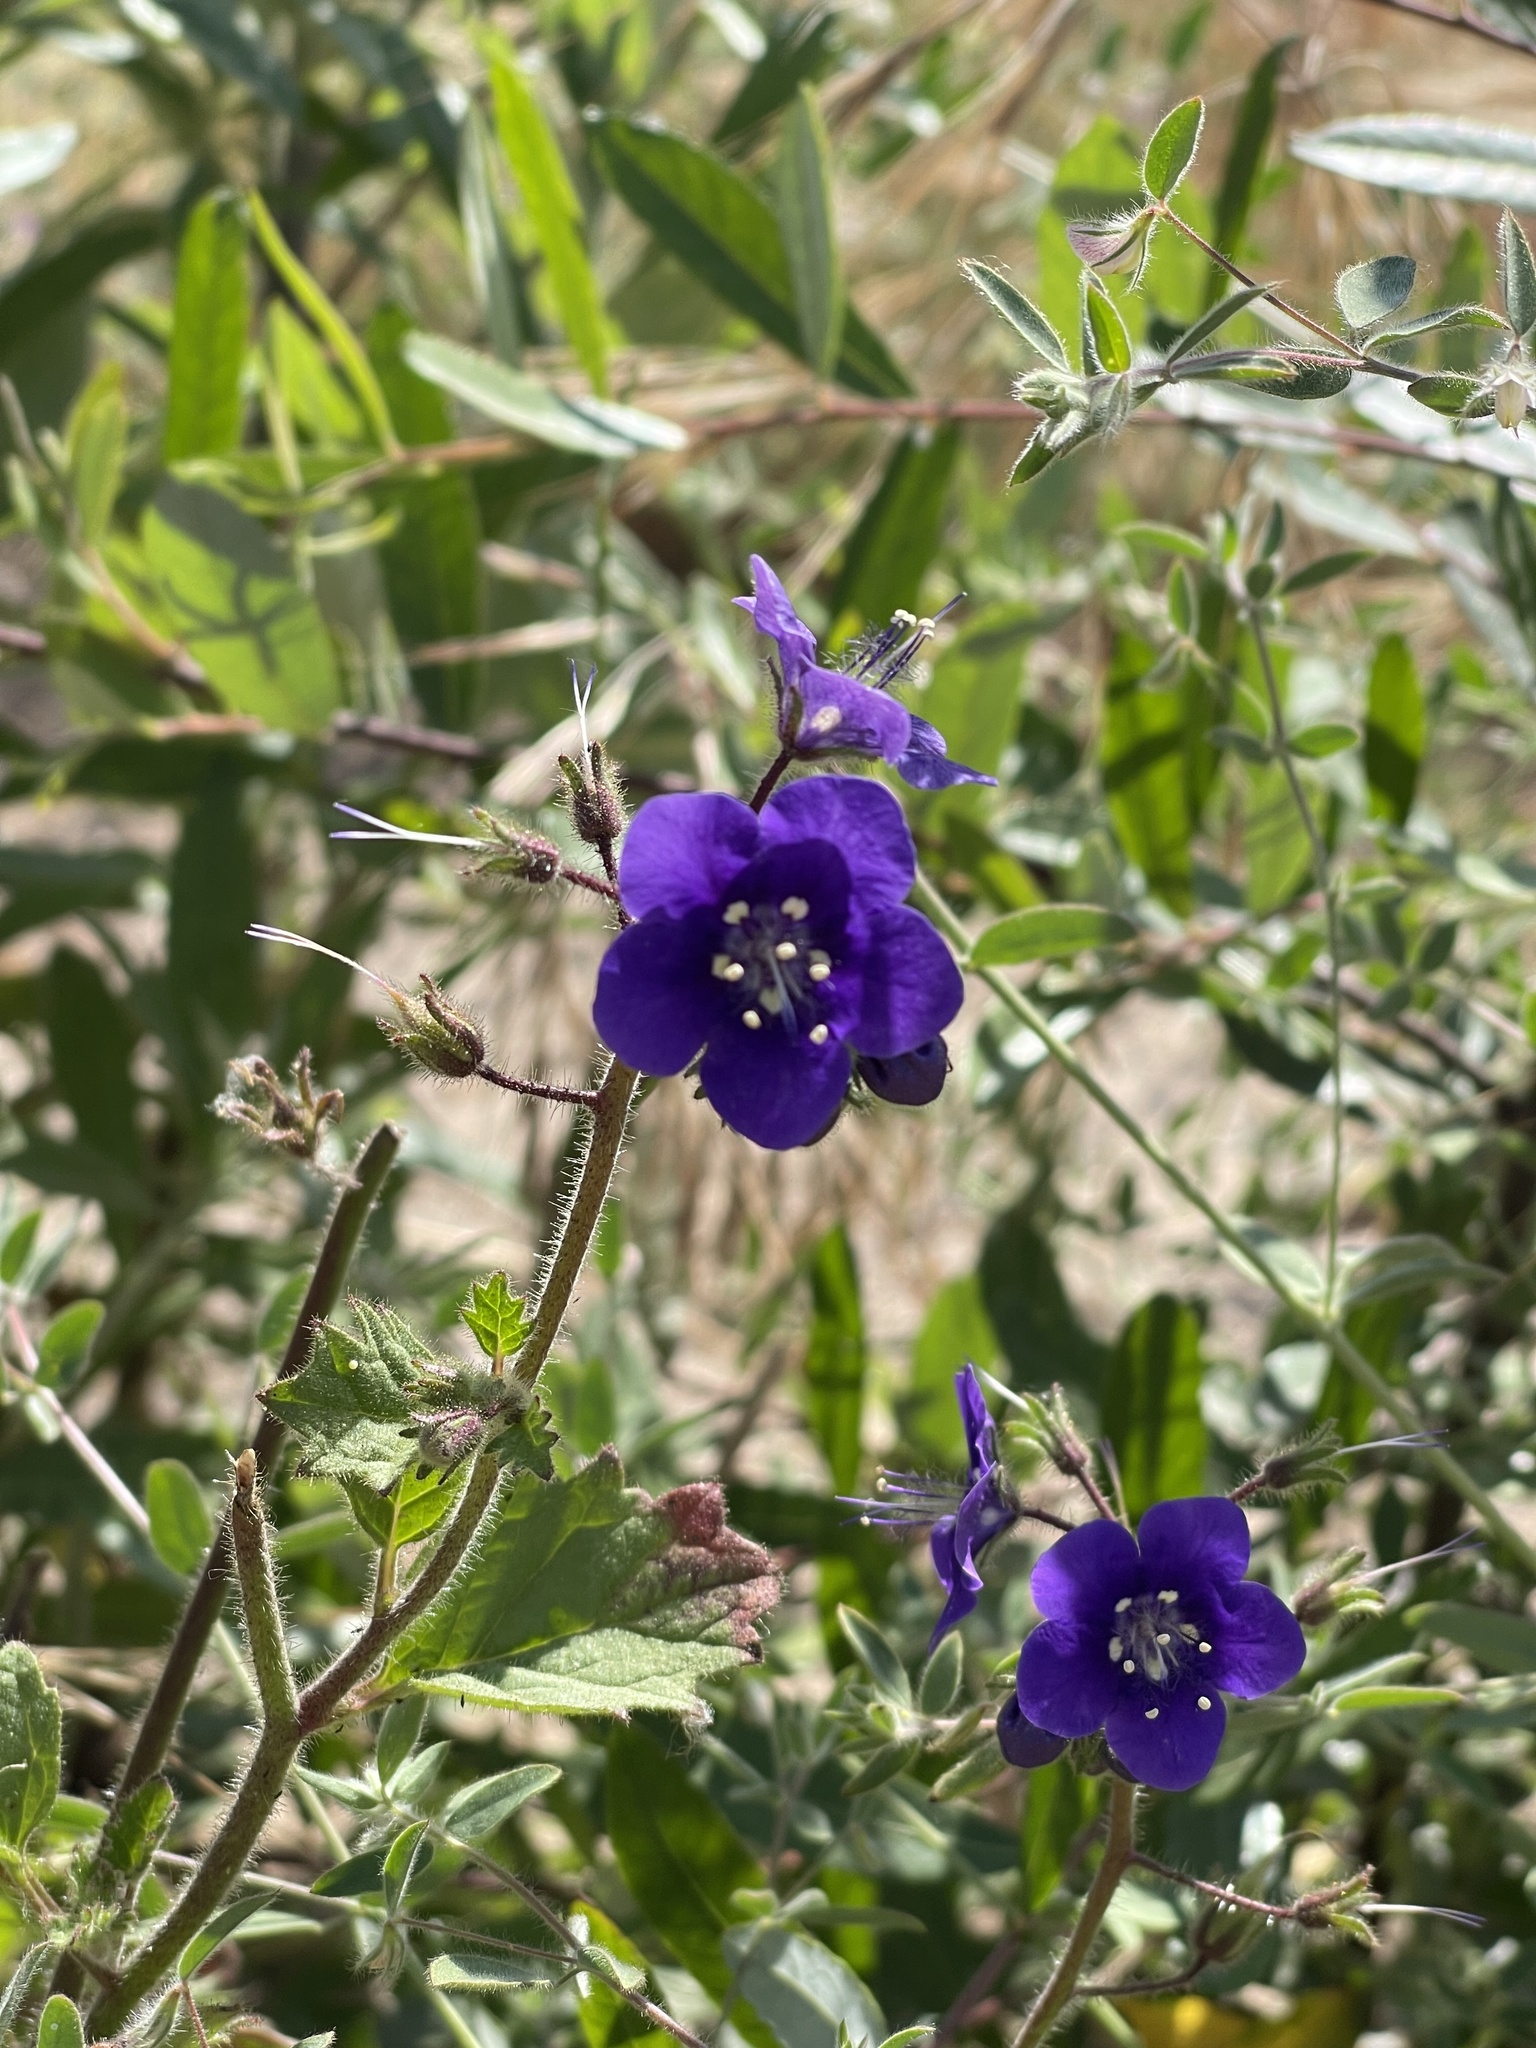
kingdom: Plantae
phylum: Tracheophyta
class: Magnoliopsida
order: Boraginales
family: Hydrophyllaceae
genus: Phacelia
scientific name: Phacelia parryi
